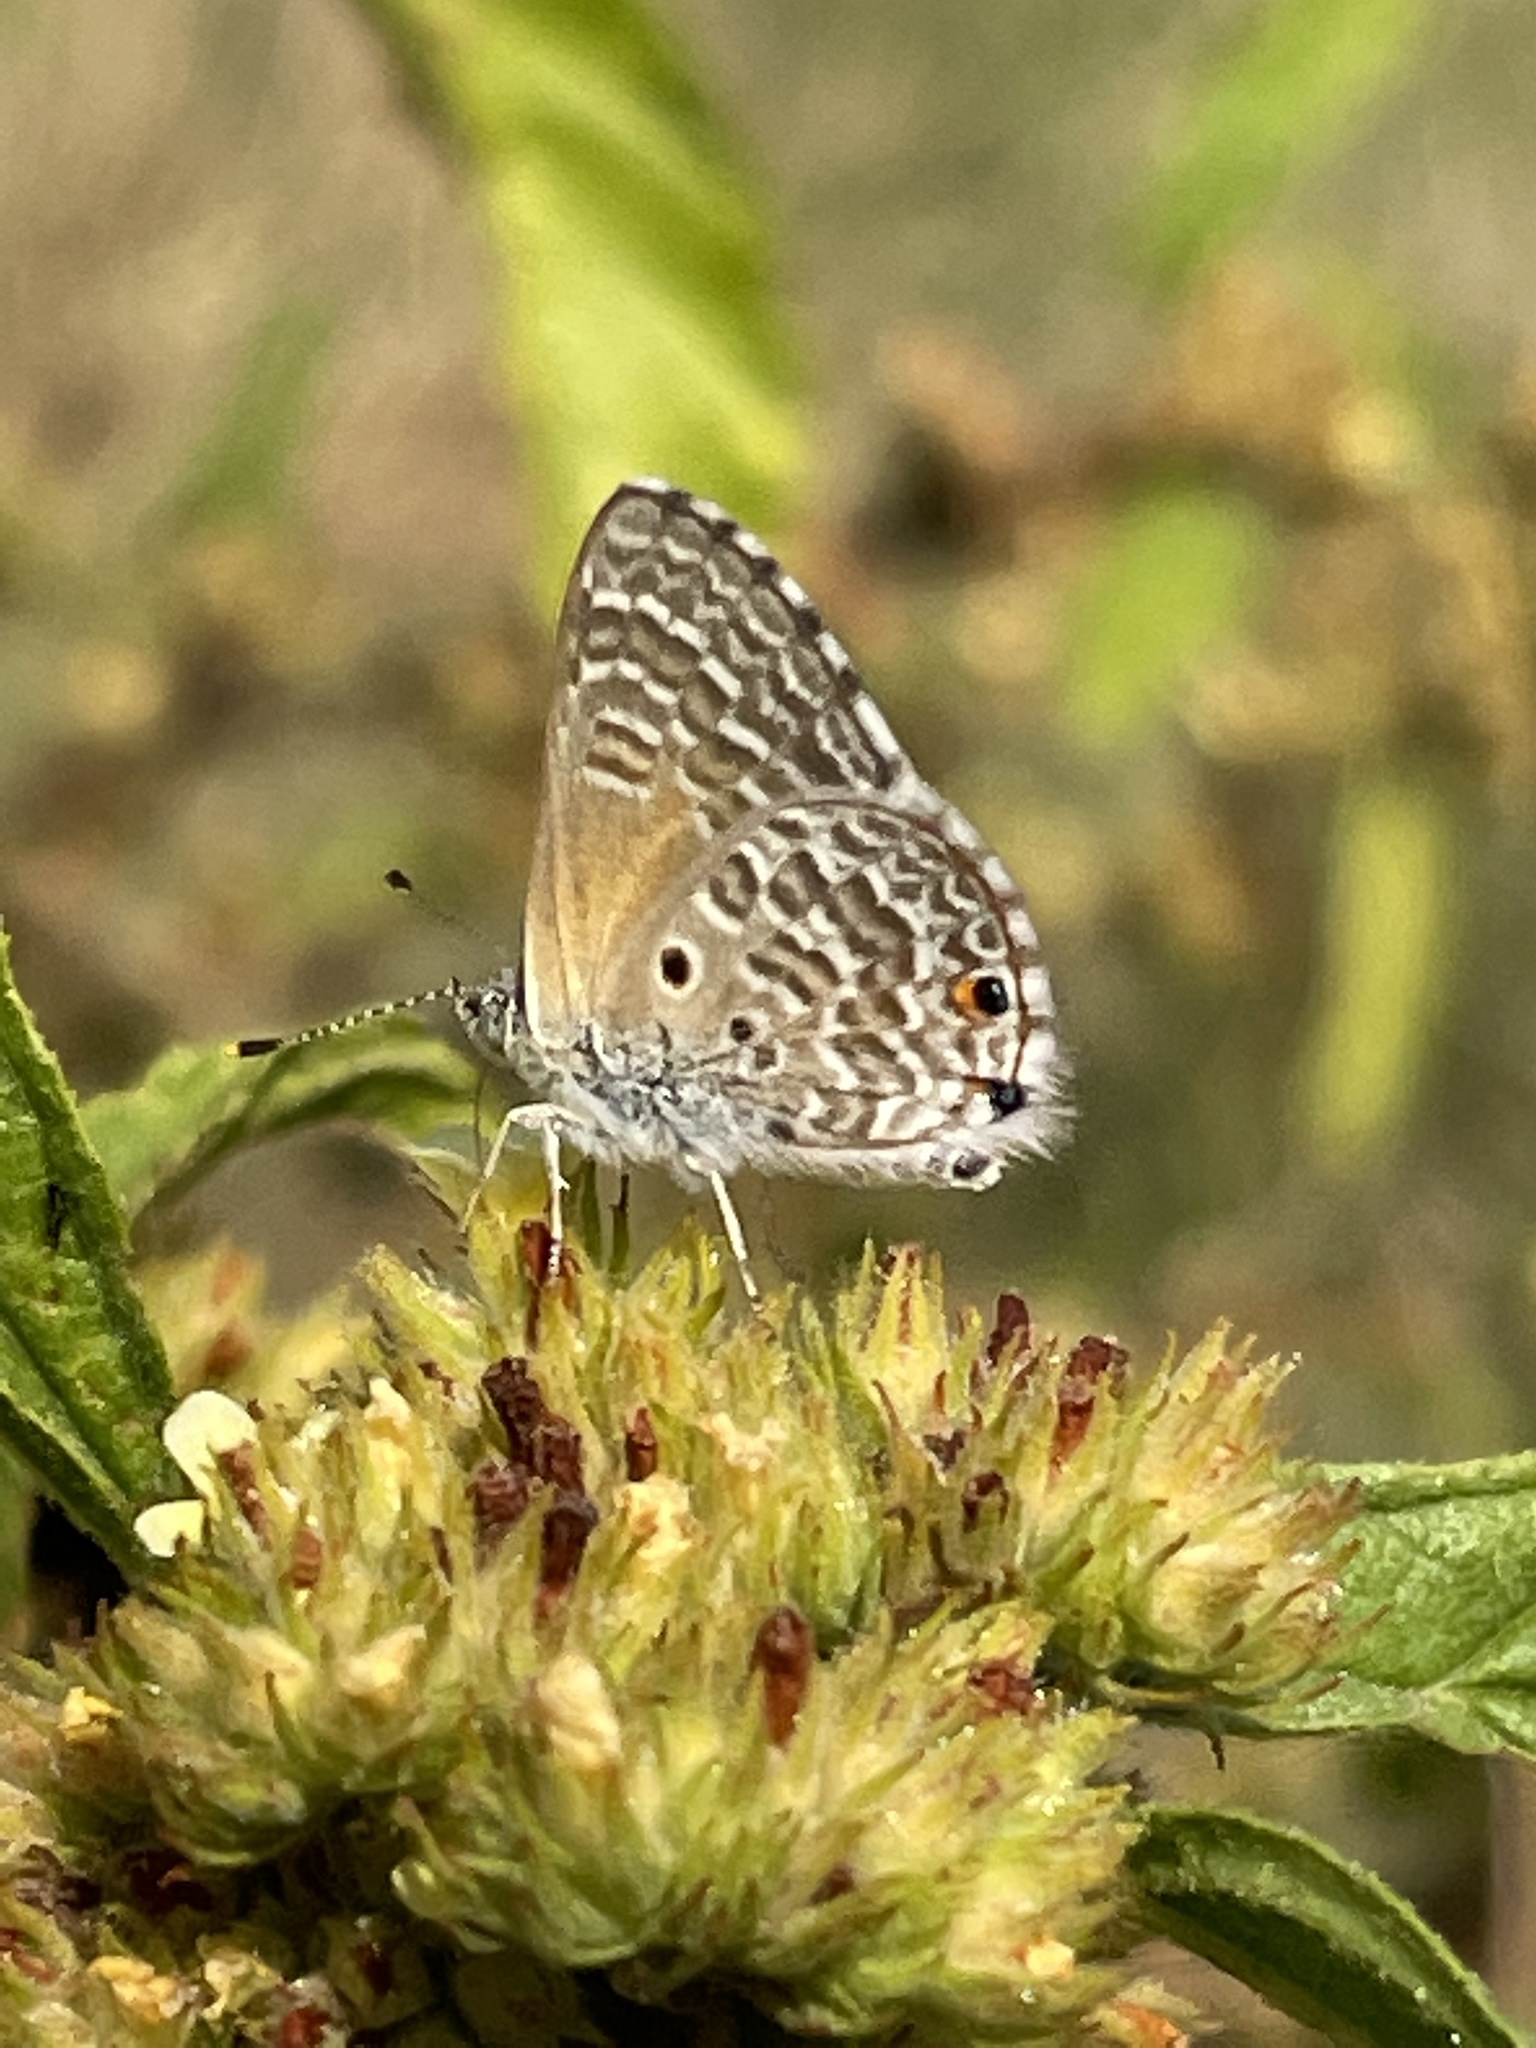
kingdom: Animalia
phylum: Arthropoda
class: Insecta
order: Lepidoptera
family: Lycaenidae
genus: Anthene
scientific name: Anthene talboti
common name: Talbot's hairtail
